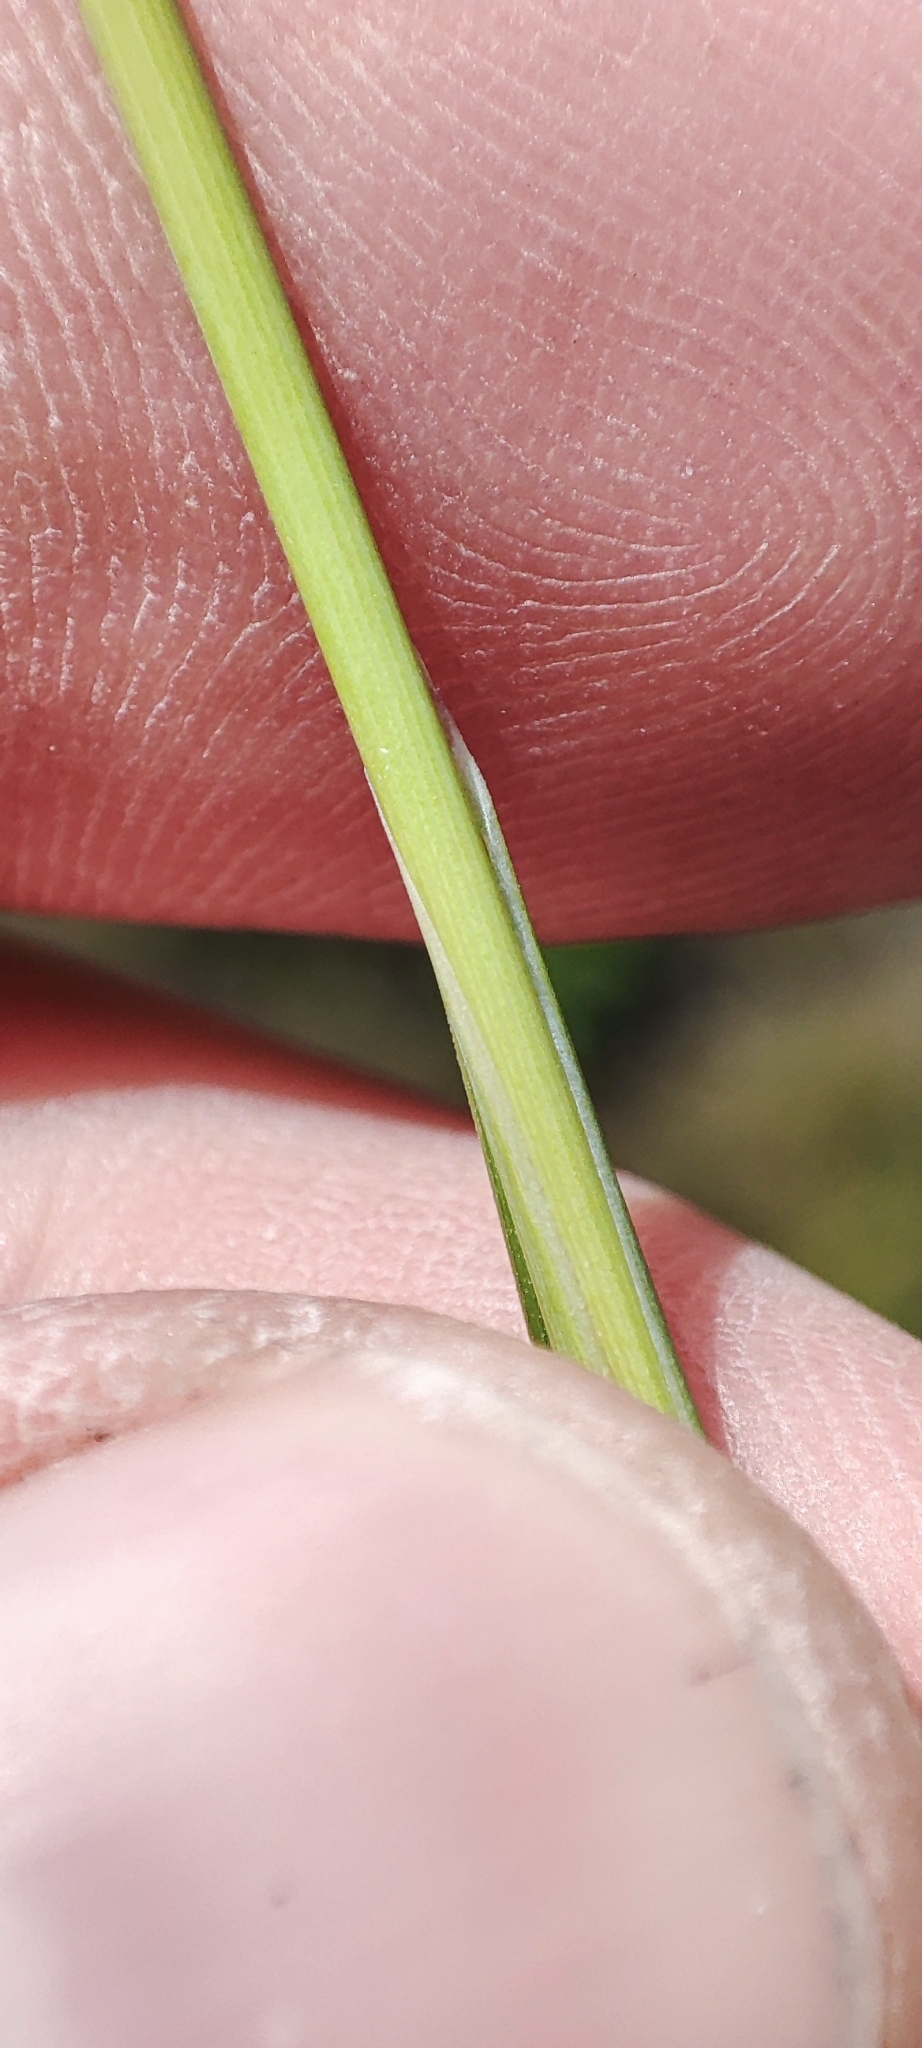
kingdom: Plantae
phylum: Tracheophyta
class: Liliopsida
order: Poales
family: Poaceae
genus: Stipa
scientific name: Stipa pennata
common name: European feather grass
